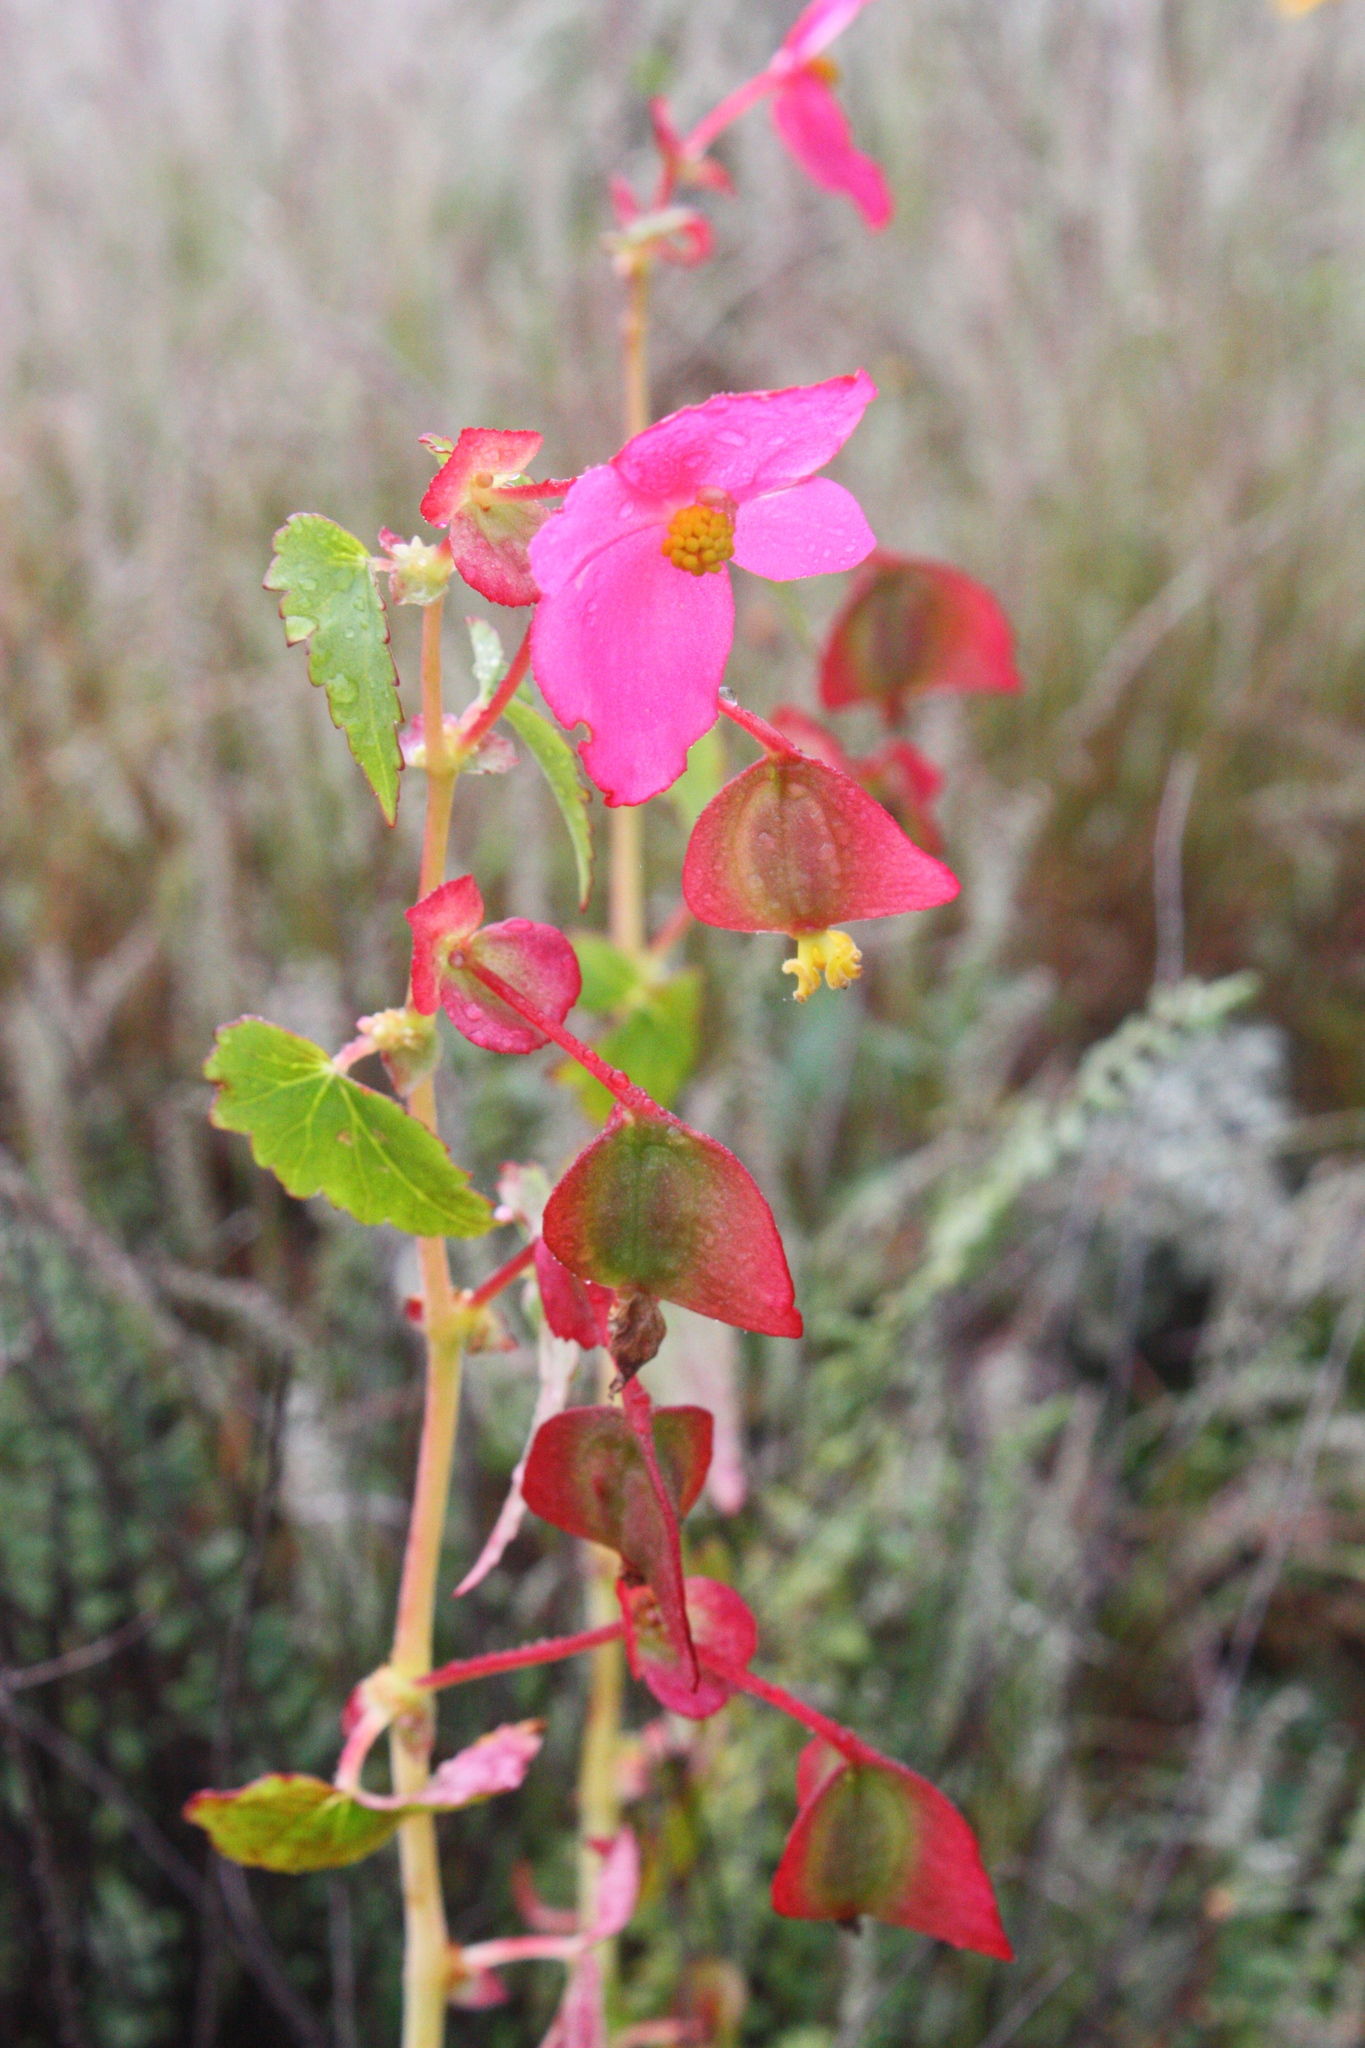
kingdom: Plantae
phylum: Tracheophyta
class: Magnoliopsida
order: Cucurbitales
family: Begoniaceae
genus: Begonia
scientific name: Begonia gracilis
